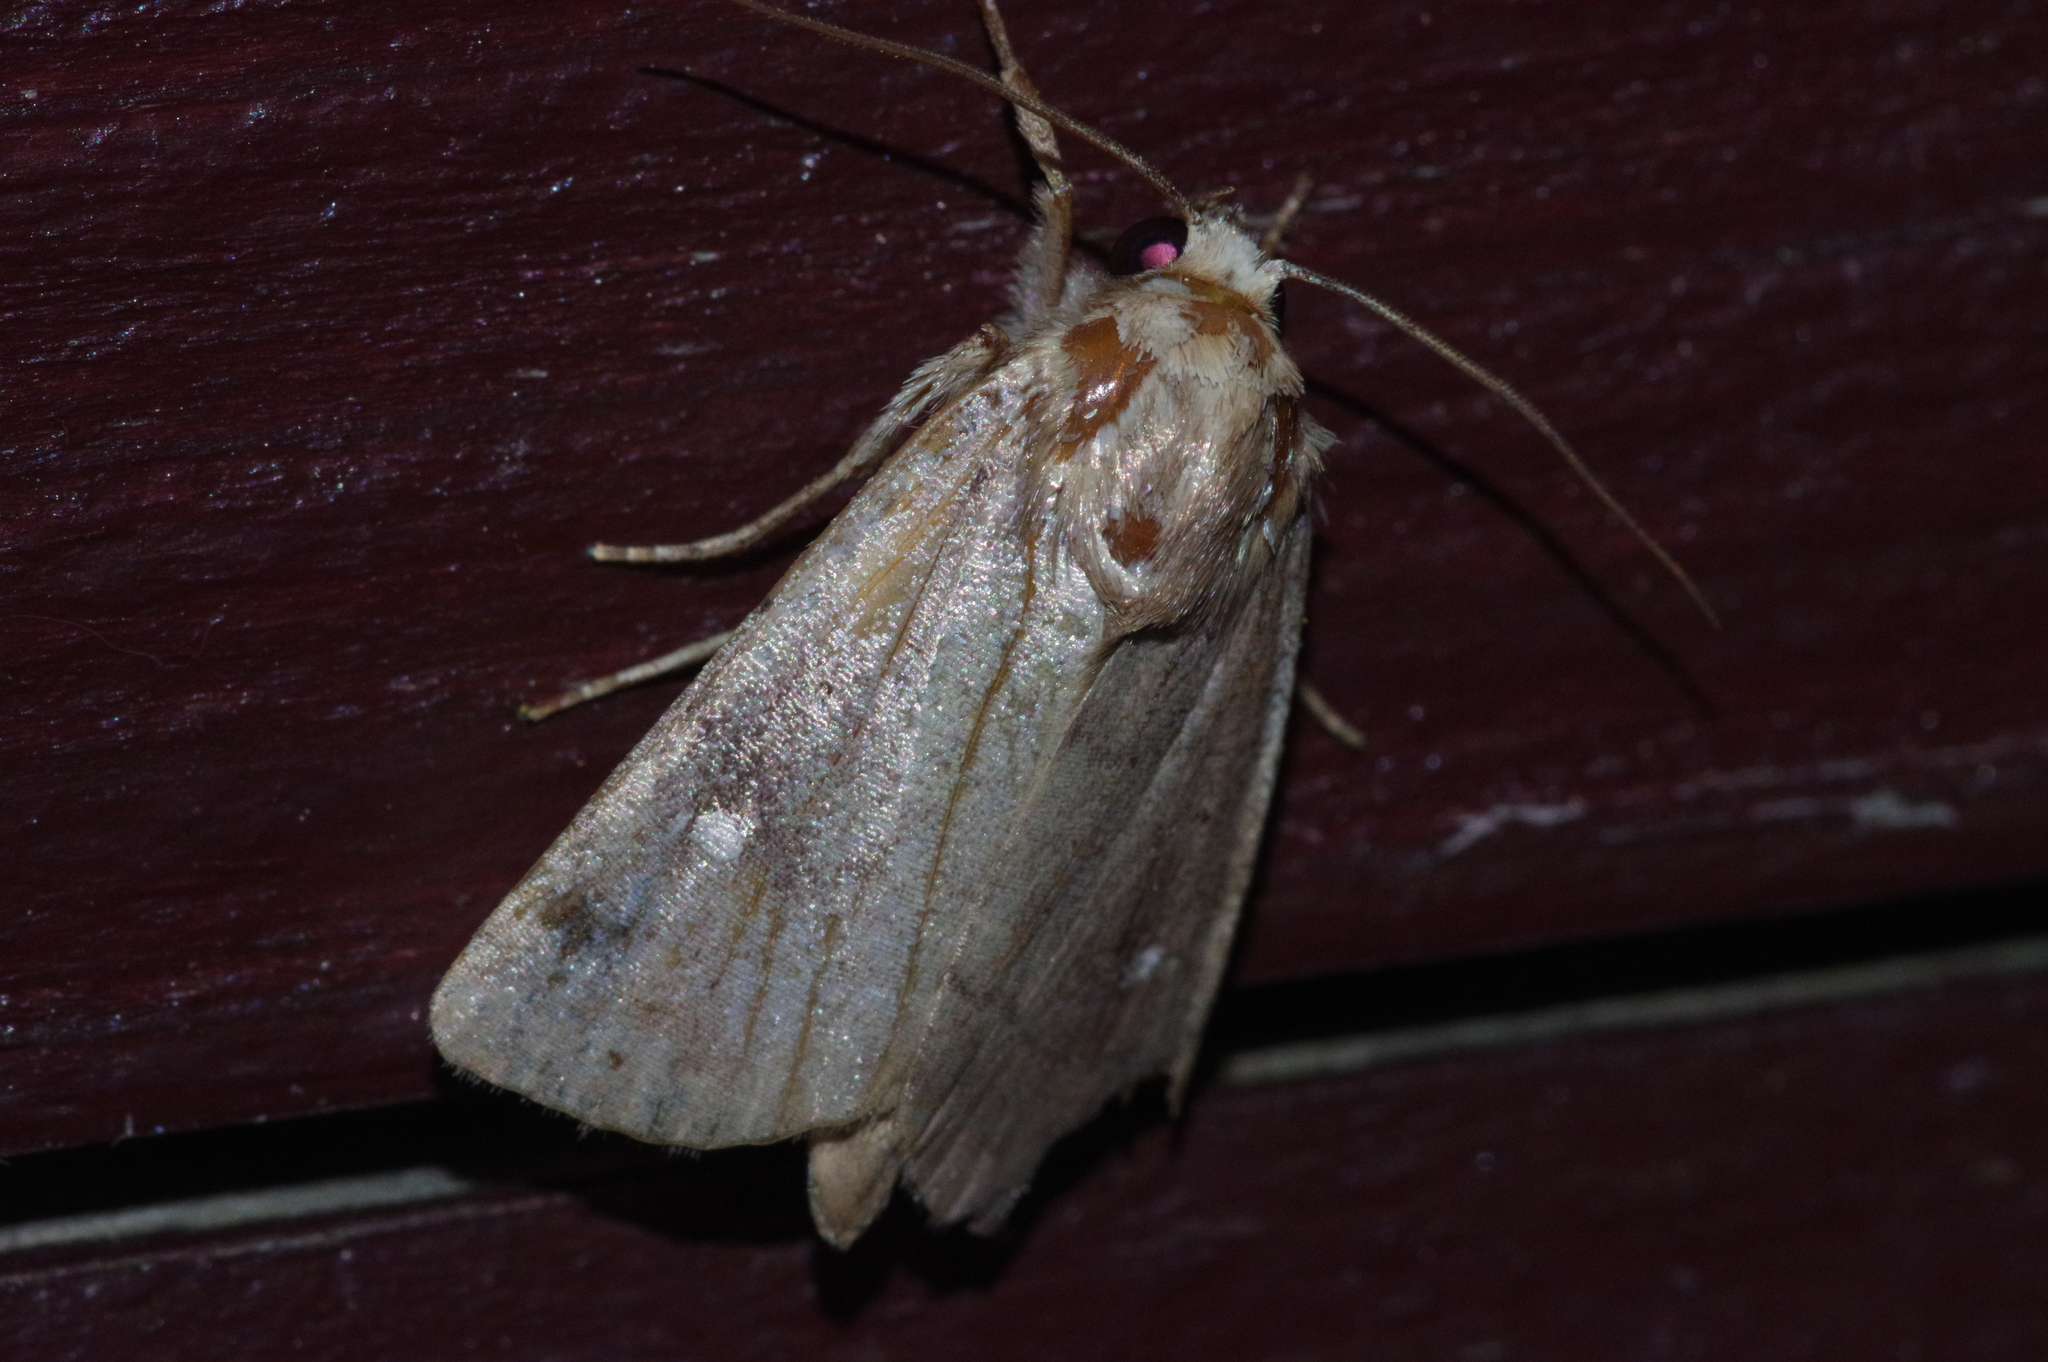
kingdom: Animalia
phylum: Arthropoda
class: Insecta
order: Lepidoptera
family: Noctuidae
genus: Athetis
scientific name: Athetis lineosella
